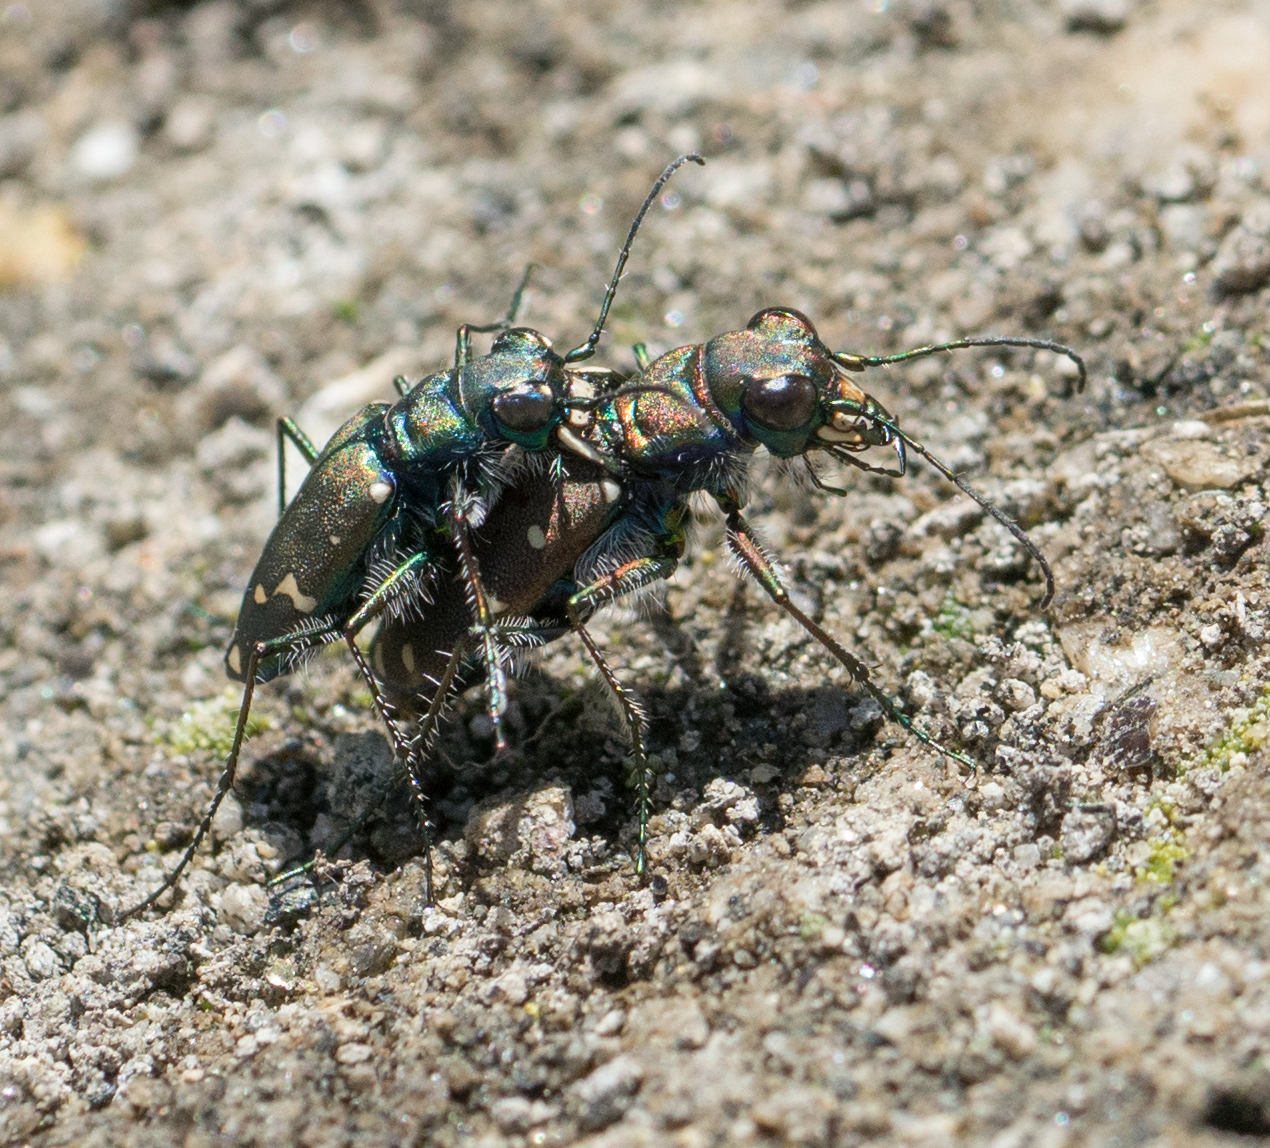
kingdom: Animalia
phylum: Arthropoda
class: Insecta
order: Coleoptera
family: Carabidae
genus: Cicindela
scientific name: Cicindela oregona
